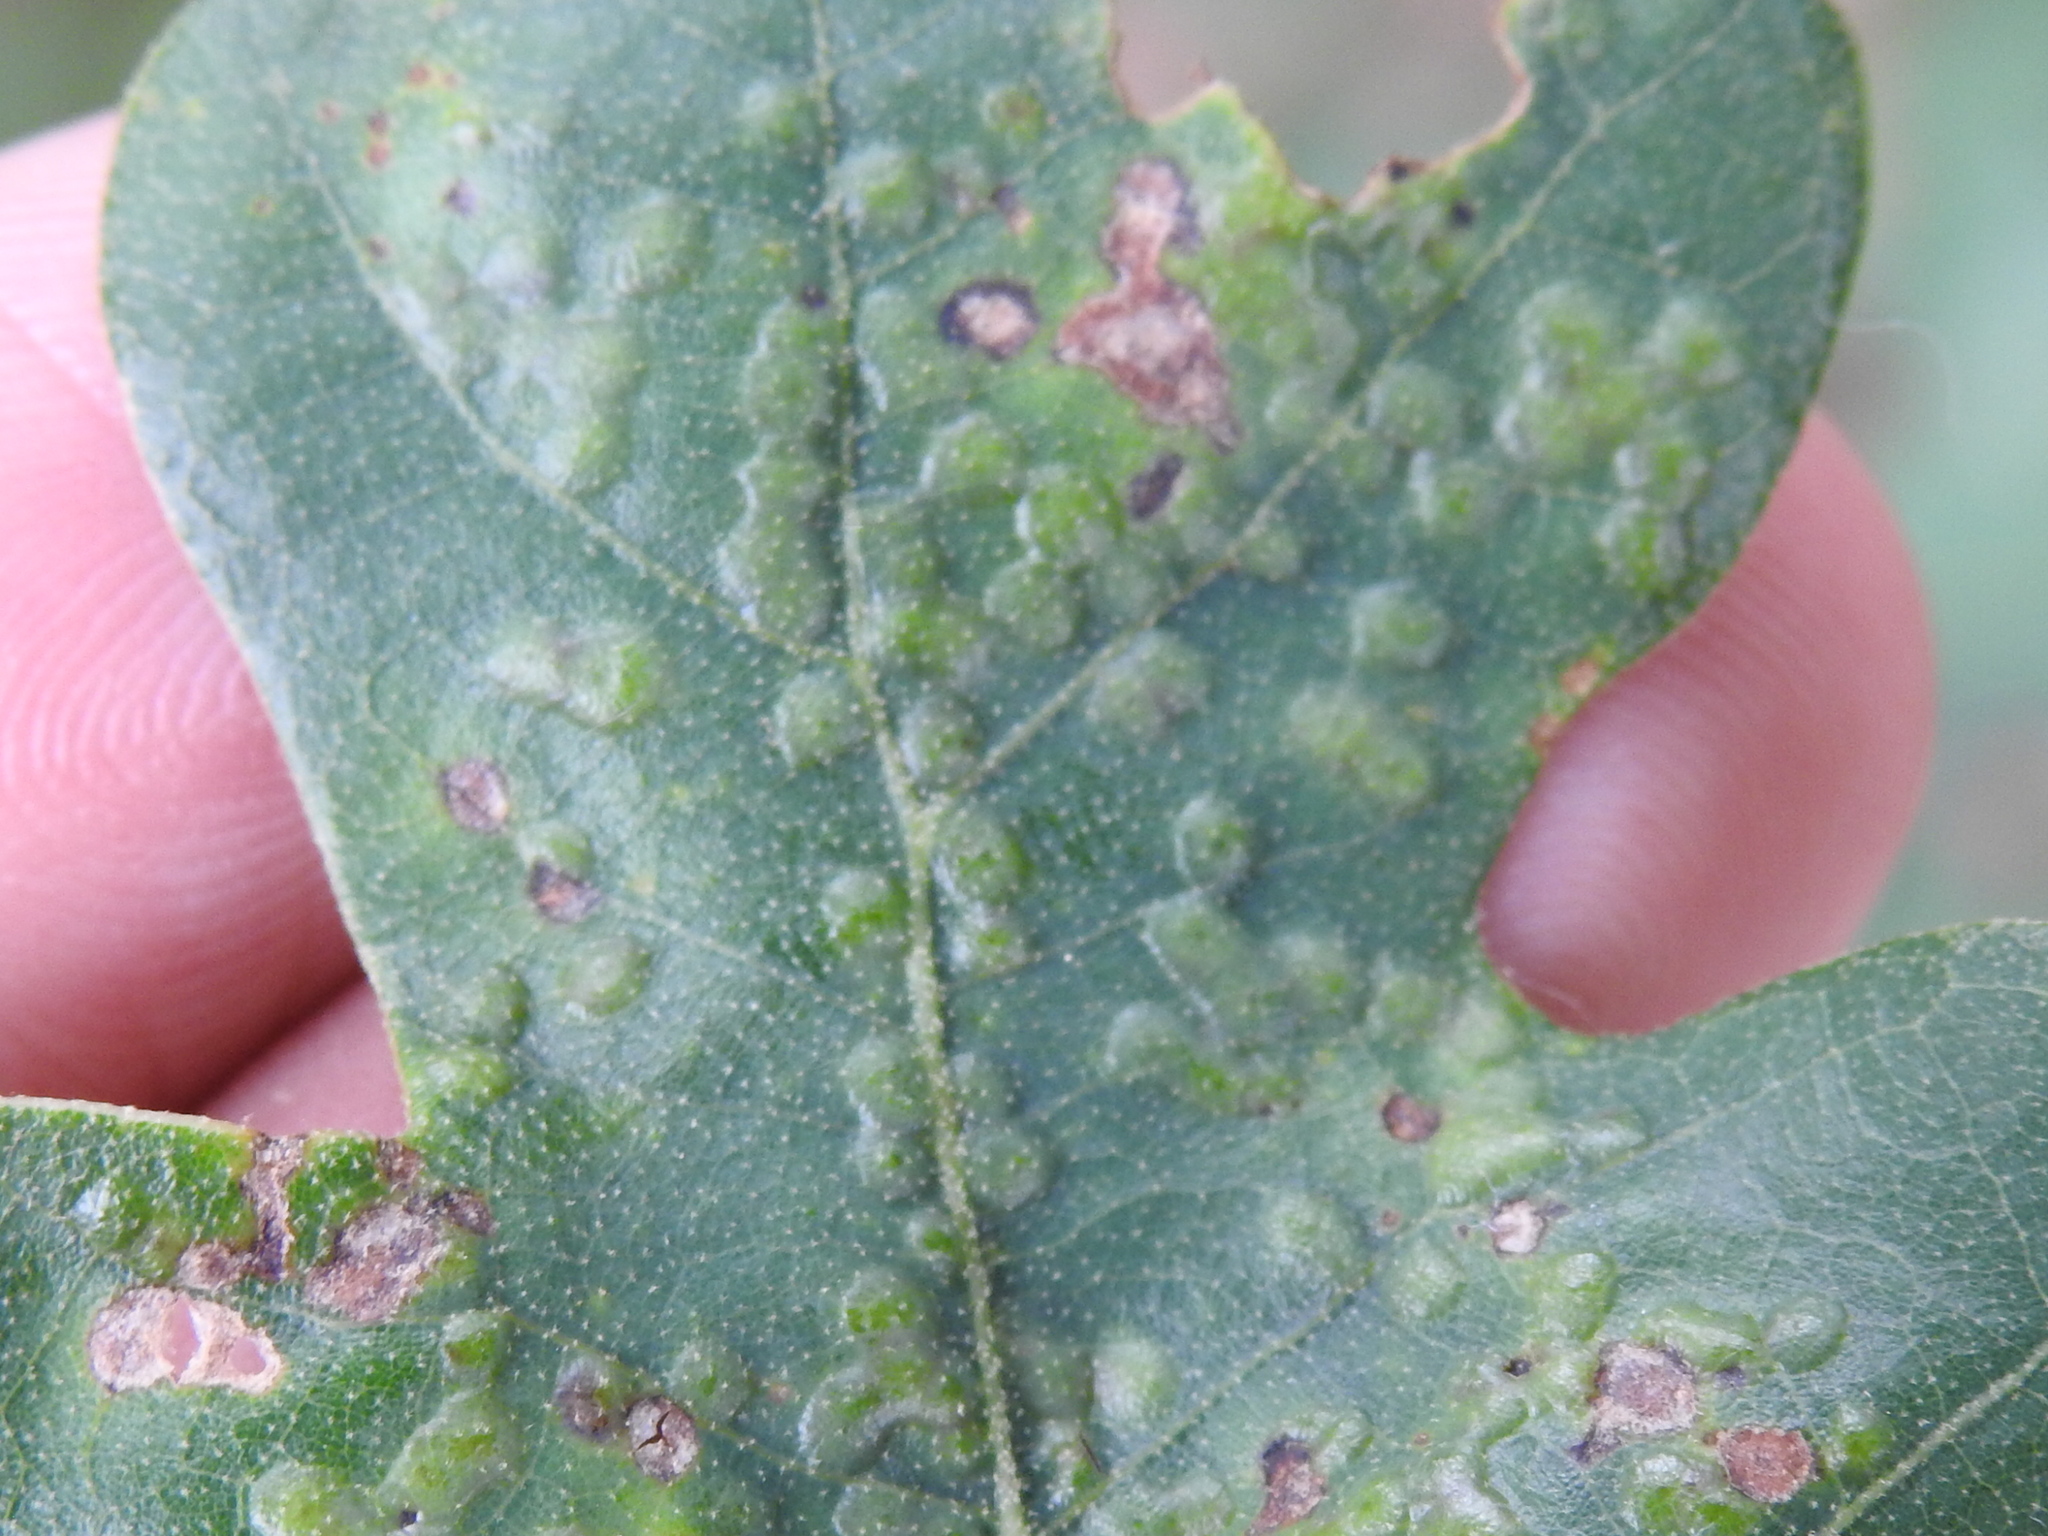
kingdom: Animalia
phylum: Arthropoda
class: Insecta
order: Hymenoptera
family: Cynipidae
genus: Neuroterus
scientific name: Neuroterus niger
